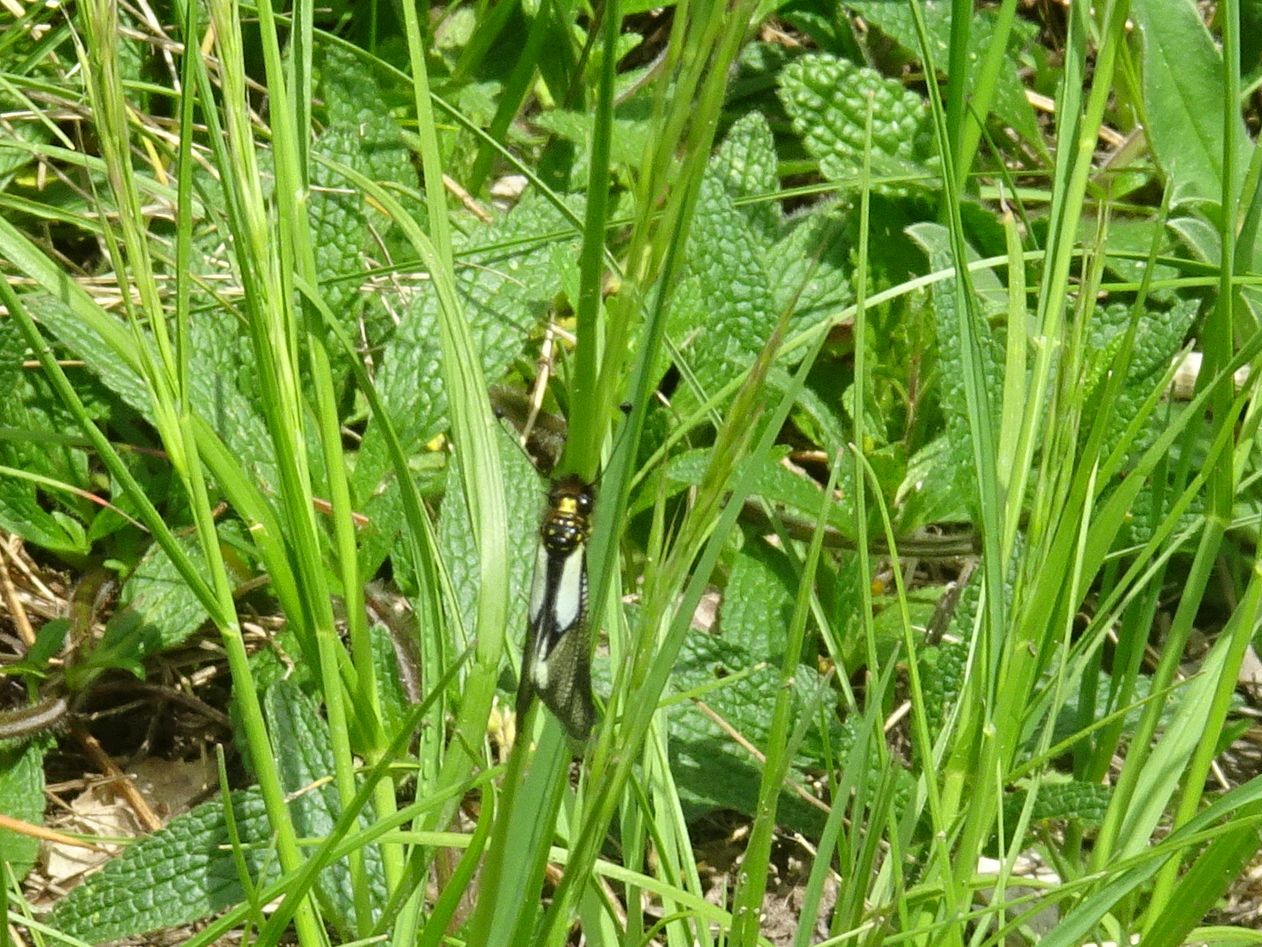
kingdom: Animalia
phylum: Arthropoda
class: Insecta
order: Neuroptera
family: Ascalaphidae
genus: Libelloides
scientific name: Libelloides coccajus
